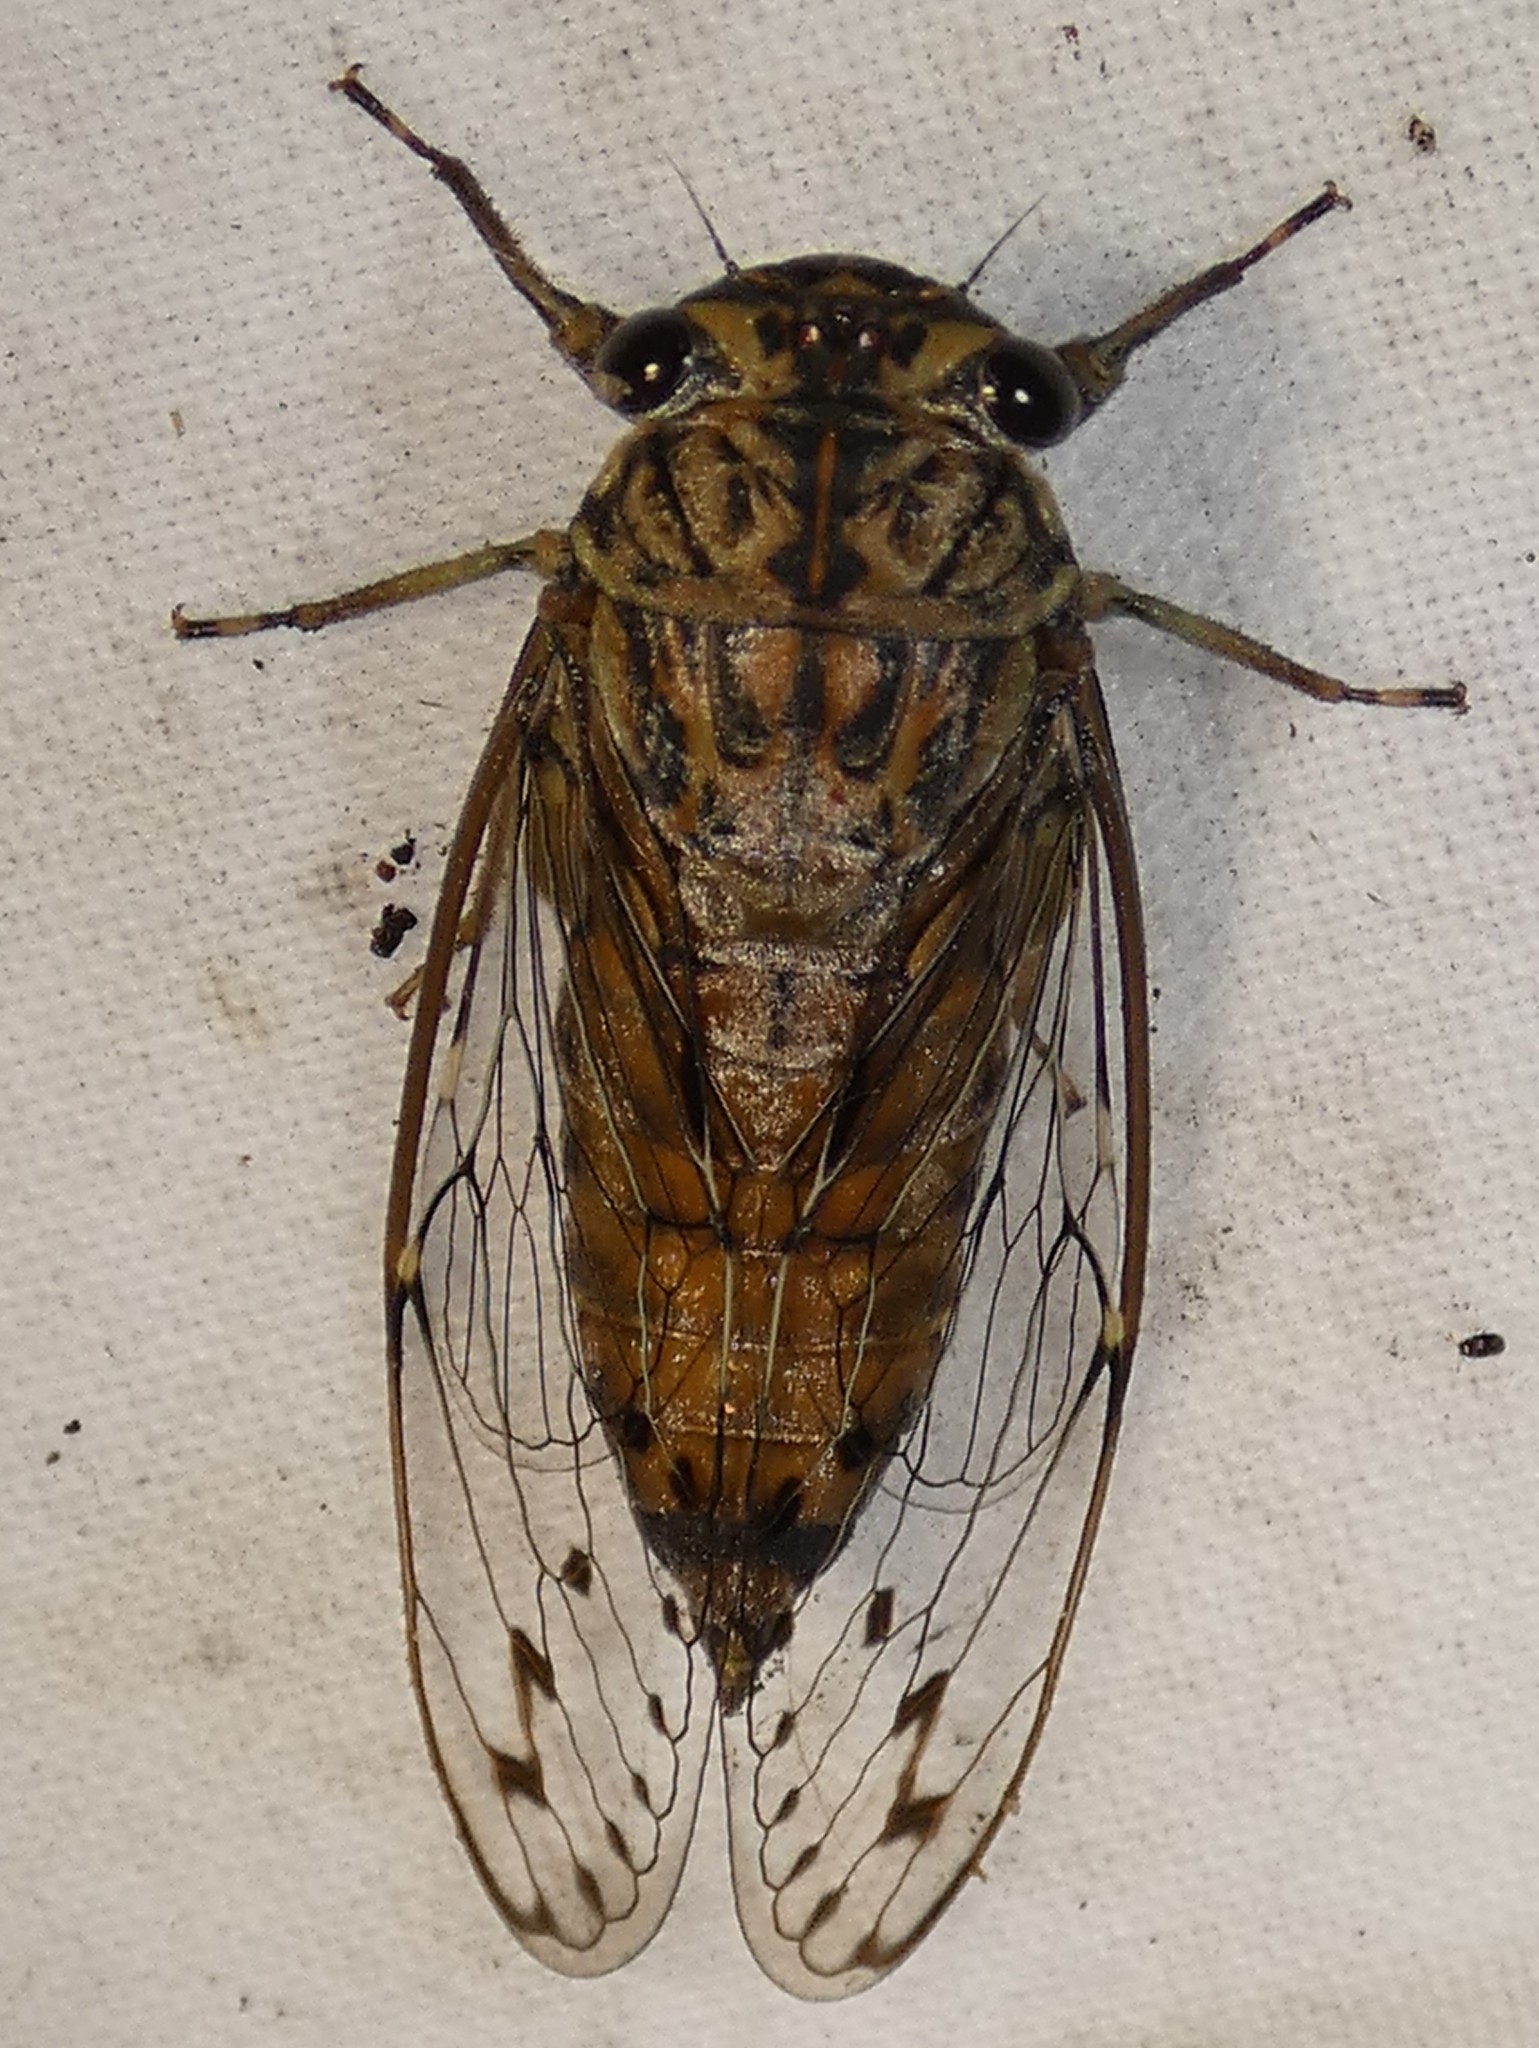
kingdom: Animalia
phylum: Arthropoda
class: Insecta
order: Hemiptera
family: Cicadidae
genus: Neocicada
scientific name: Neocicada hieroglyphica
